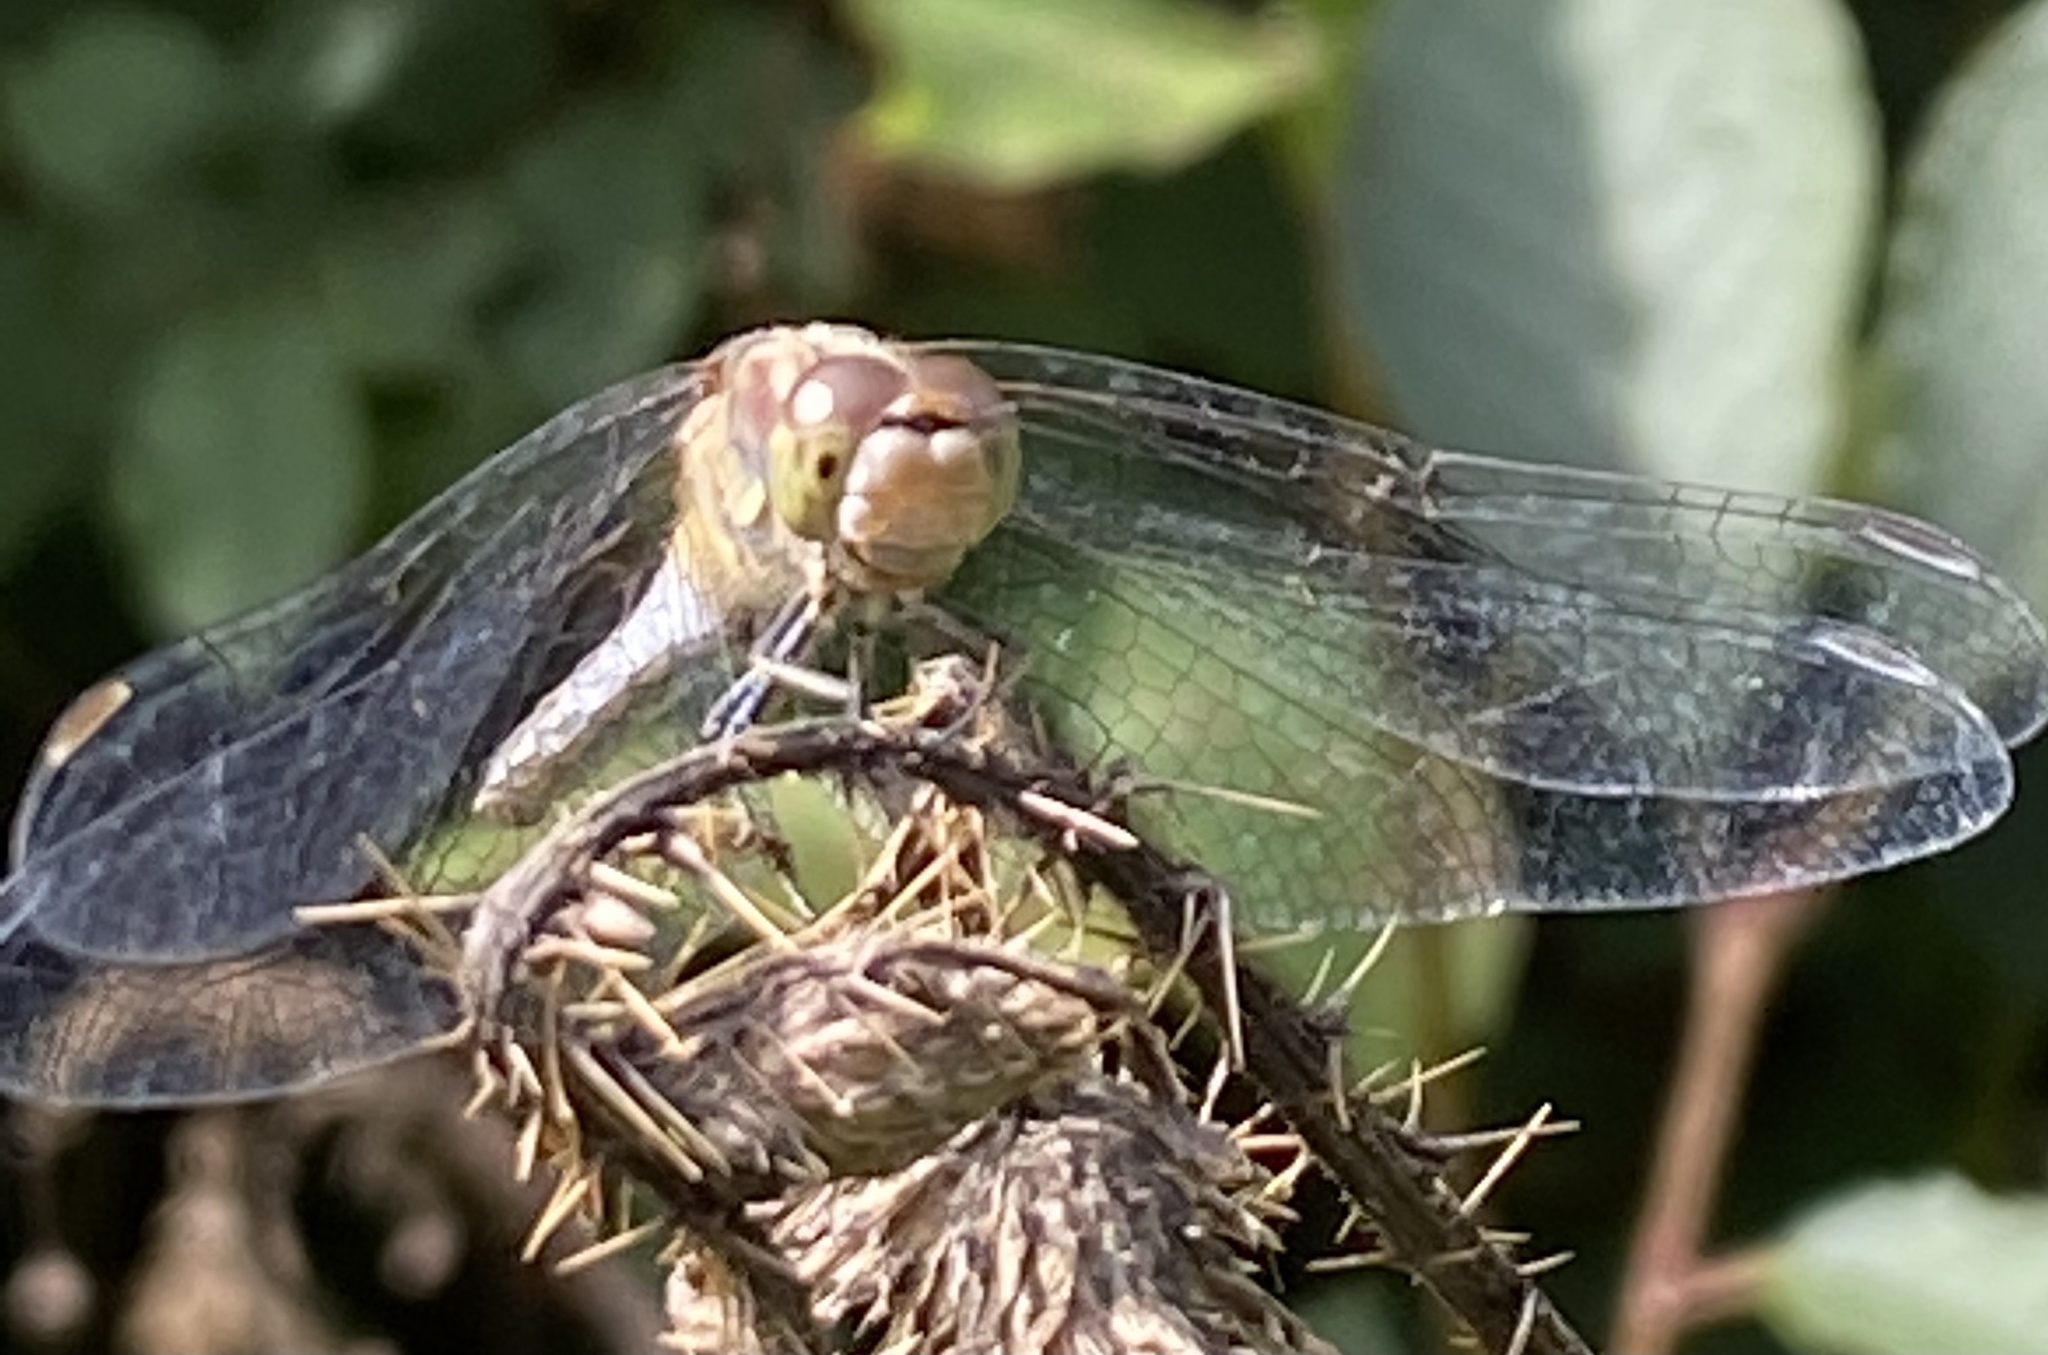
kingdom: Animalia
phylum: Arthropoda
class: Insecta
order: Odonata
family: Libellulidae
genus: Sympetrum
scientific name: Sympetrum striolatum
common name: Common darter
